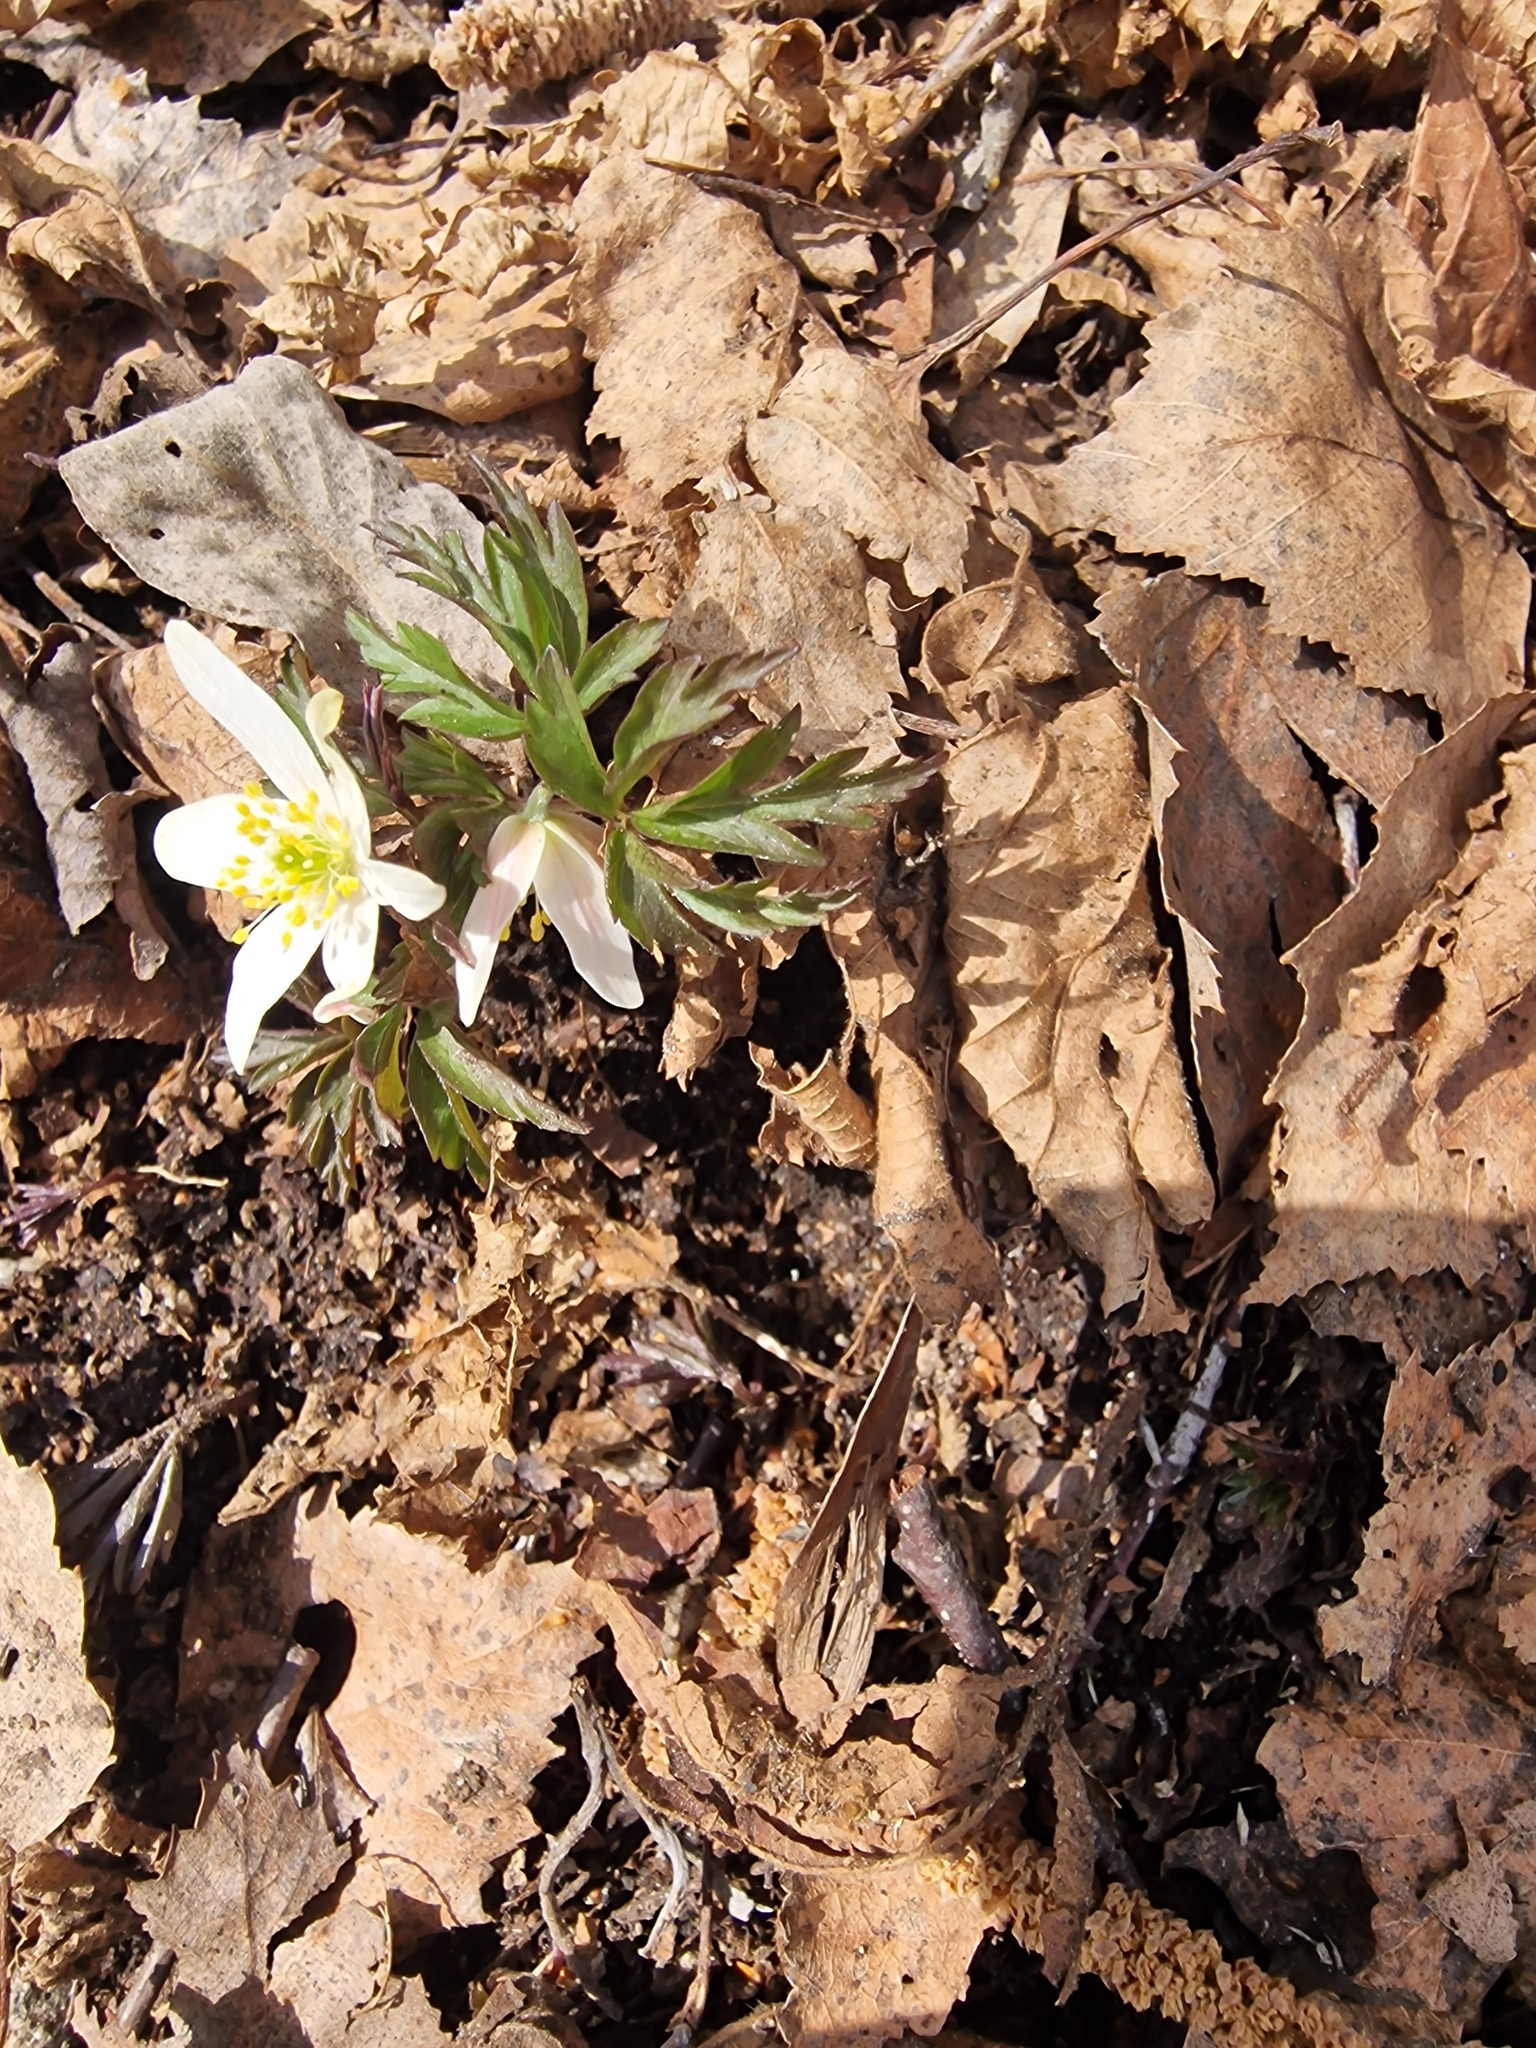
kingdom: Plantae
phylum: Tracheophyta
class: Magnoliopsida
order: Ranunculales
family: Ranunculaceae
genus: Anemone
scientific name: Anemone nemorosa
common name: Wood anemone
